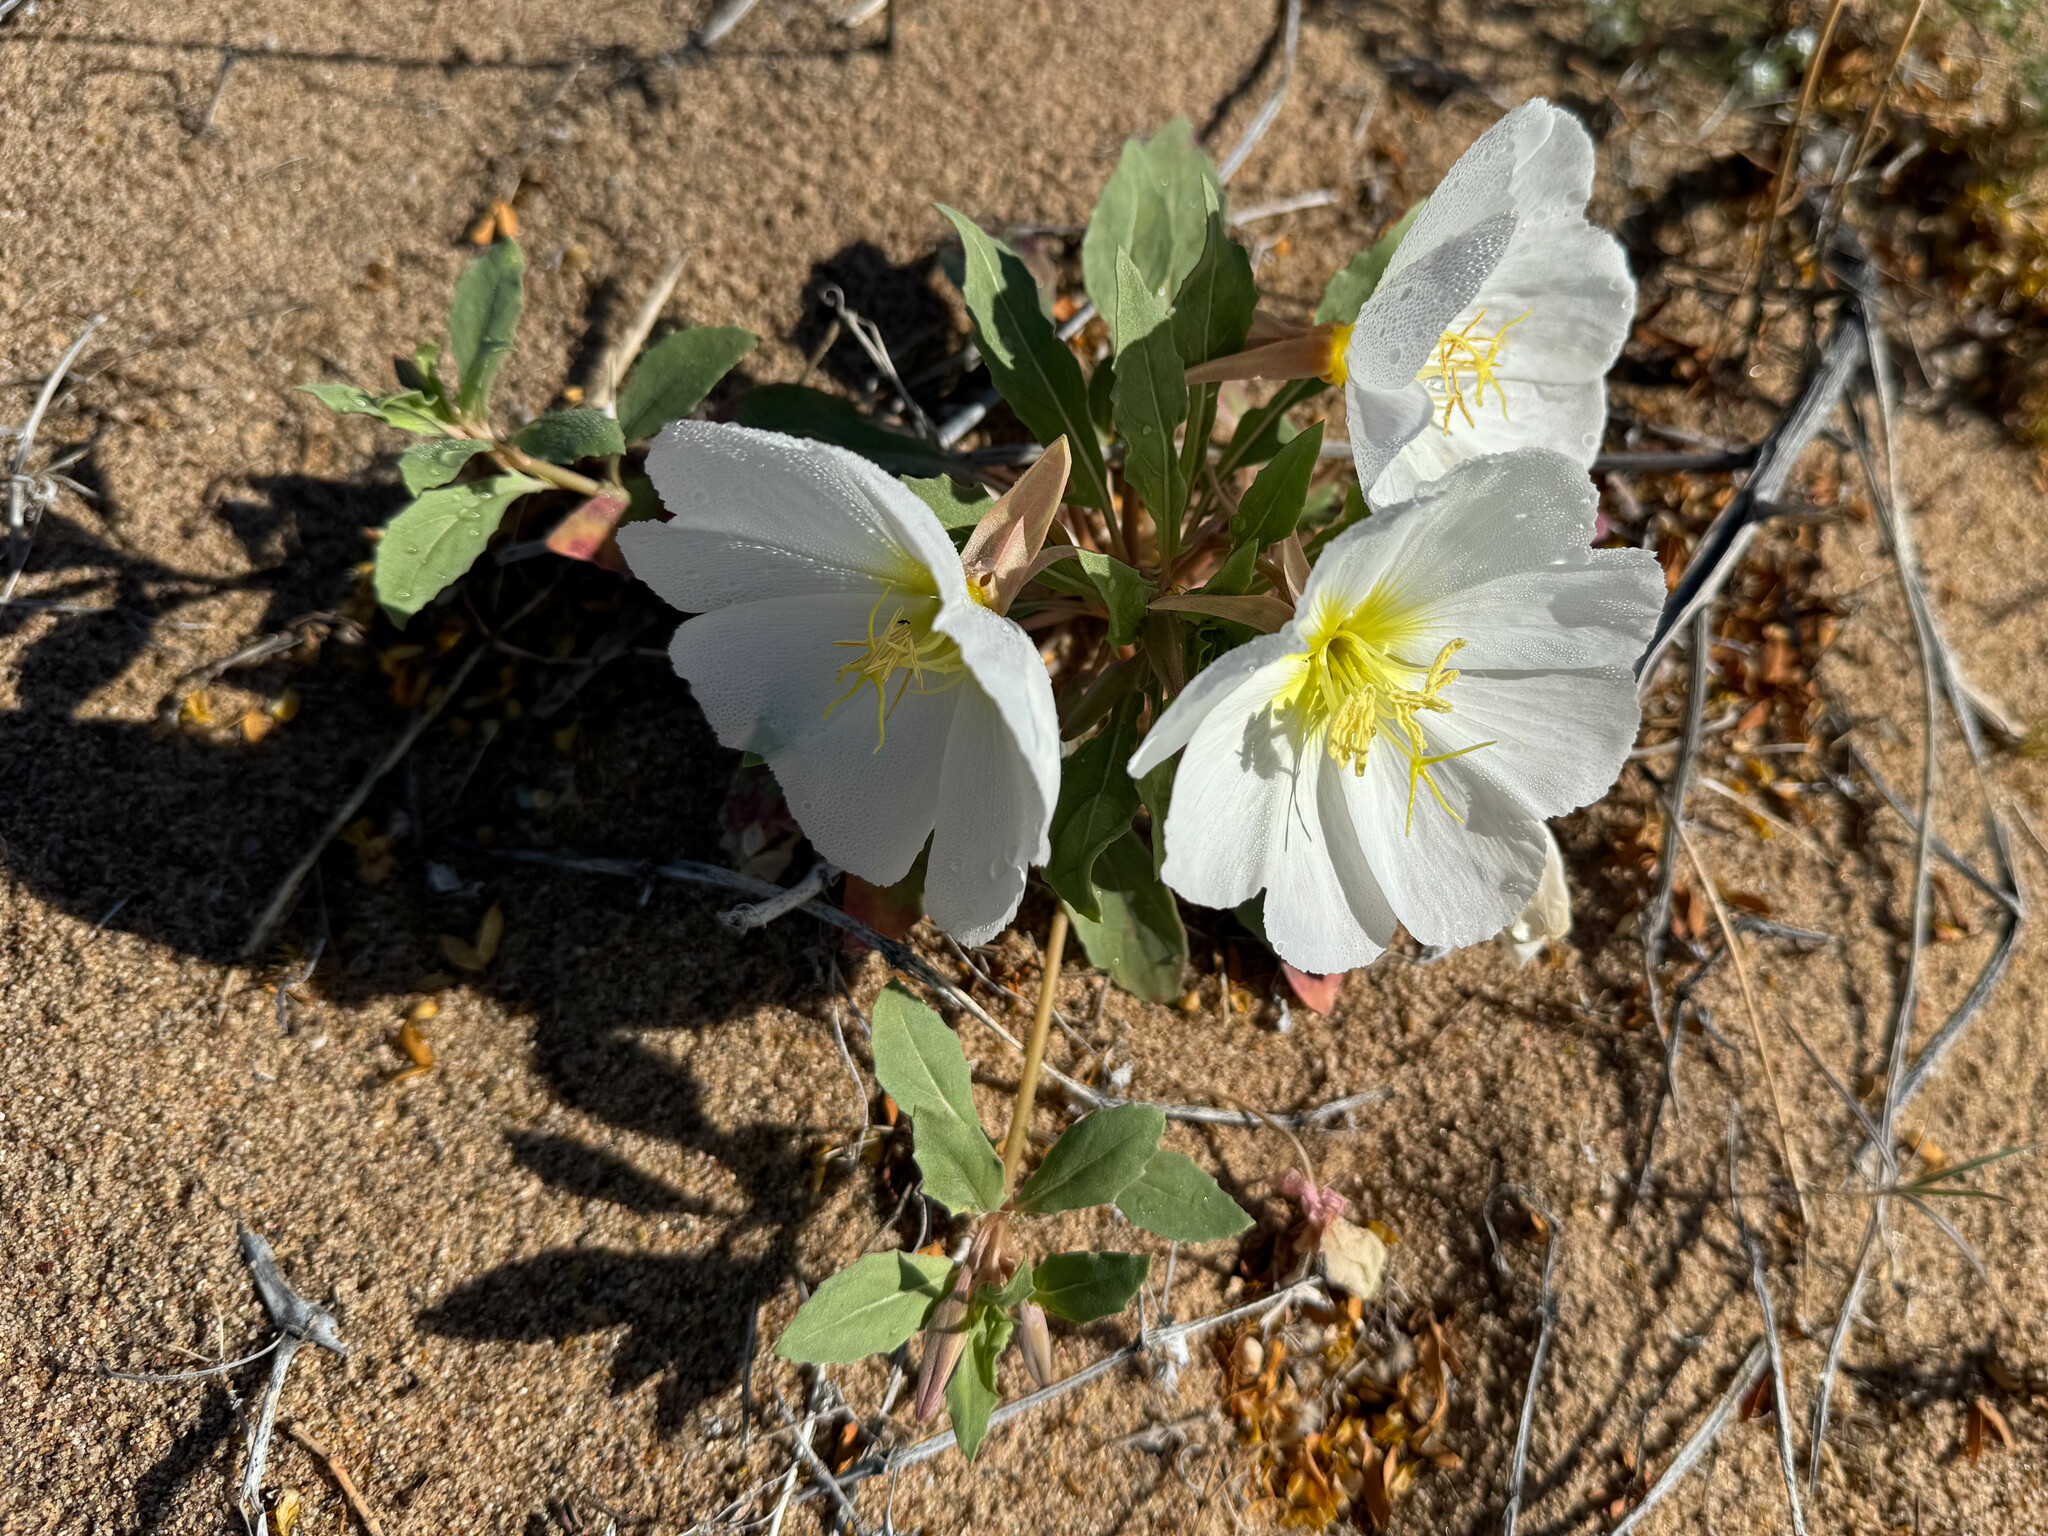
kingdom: Plantae
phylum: Tracheophyta
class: Magnoliopsida
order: Myrtales
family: Onagraceae
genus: Oenothera
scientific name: Oenothera deltoides
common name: Basket evening-primrose
